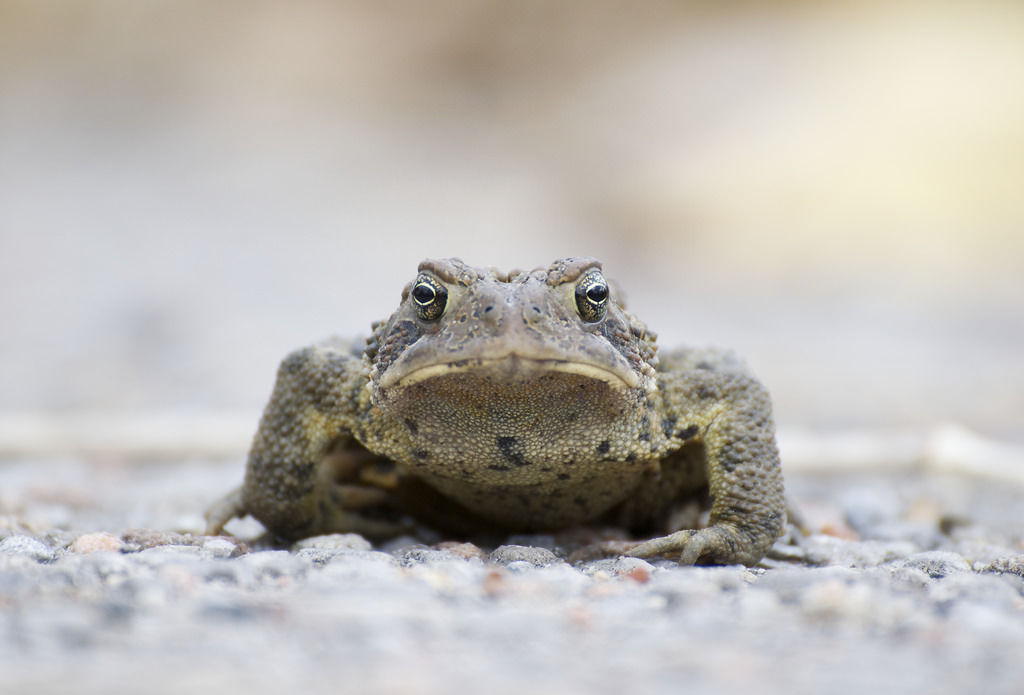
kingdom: Animalia
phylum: Chordata
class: Amphibia
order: Anura
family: Bufonidae
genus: Anaxyrus
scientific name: Anaxyrus americanus
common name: American toad
